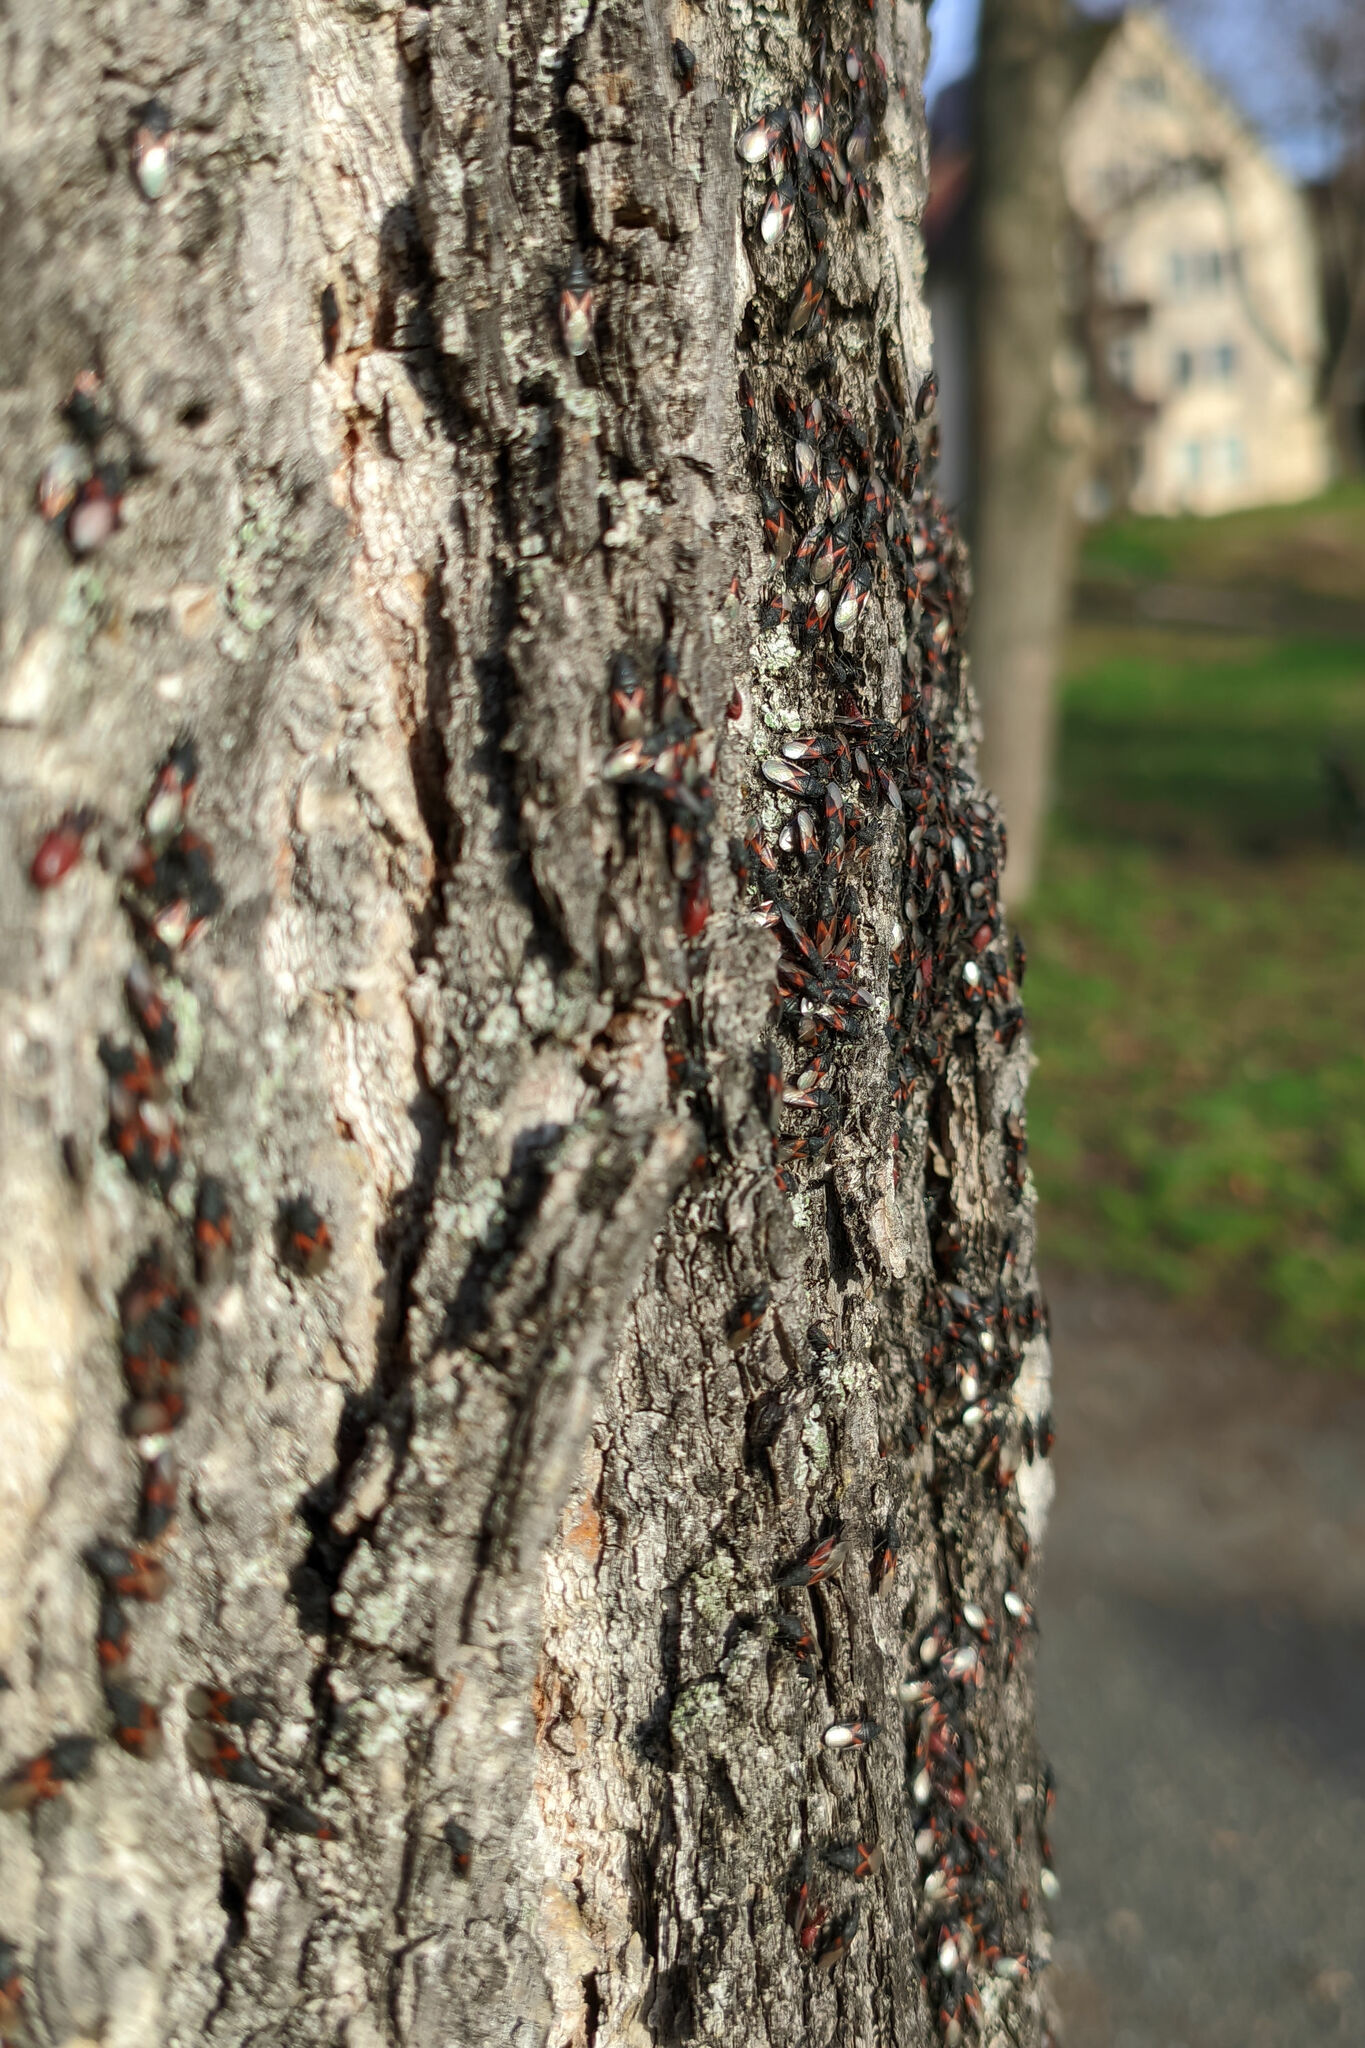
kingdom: Animalia
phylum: Arthropoda
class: Insecta
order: Hemiptera
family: Oxycarenidae
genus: Oxycarenus
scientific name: Oxycarenus lavaterae
